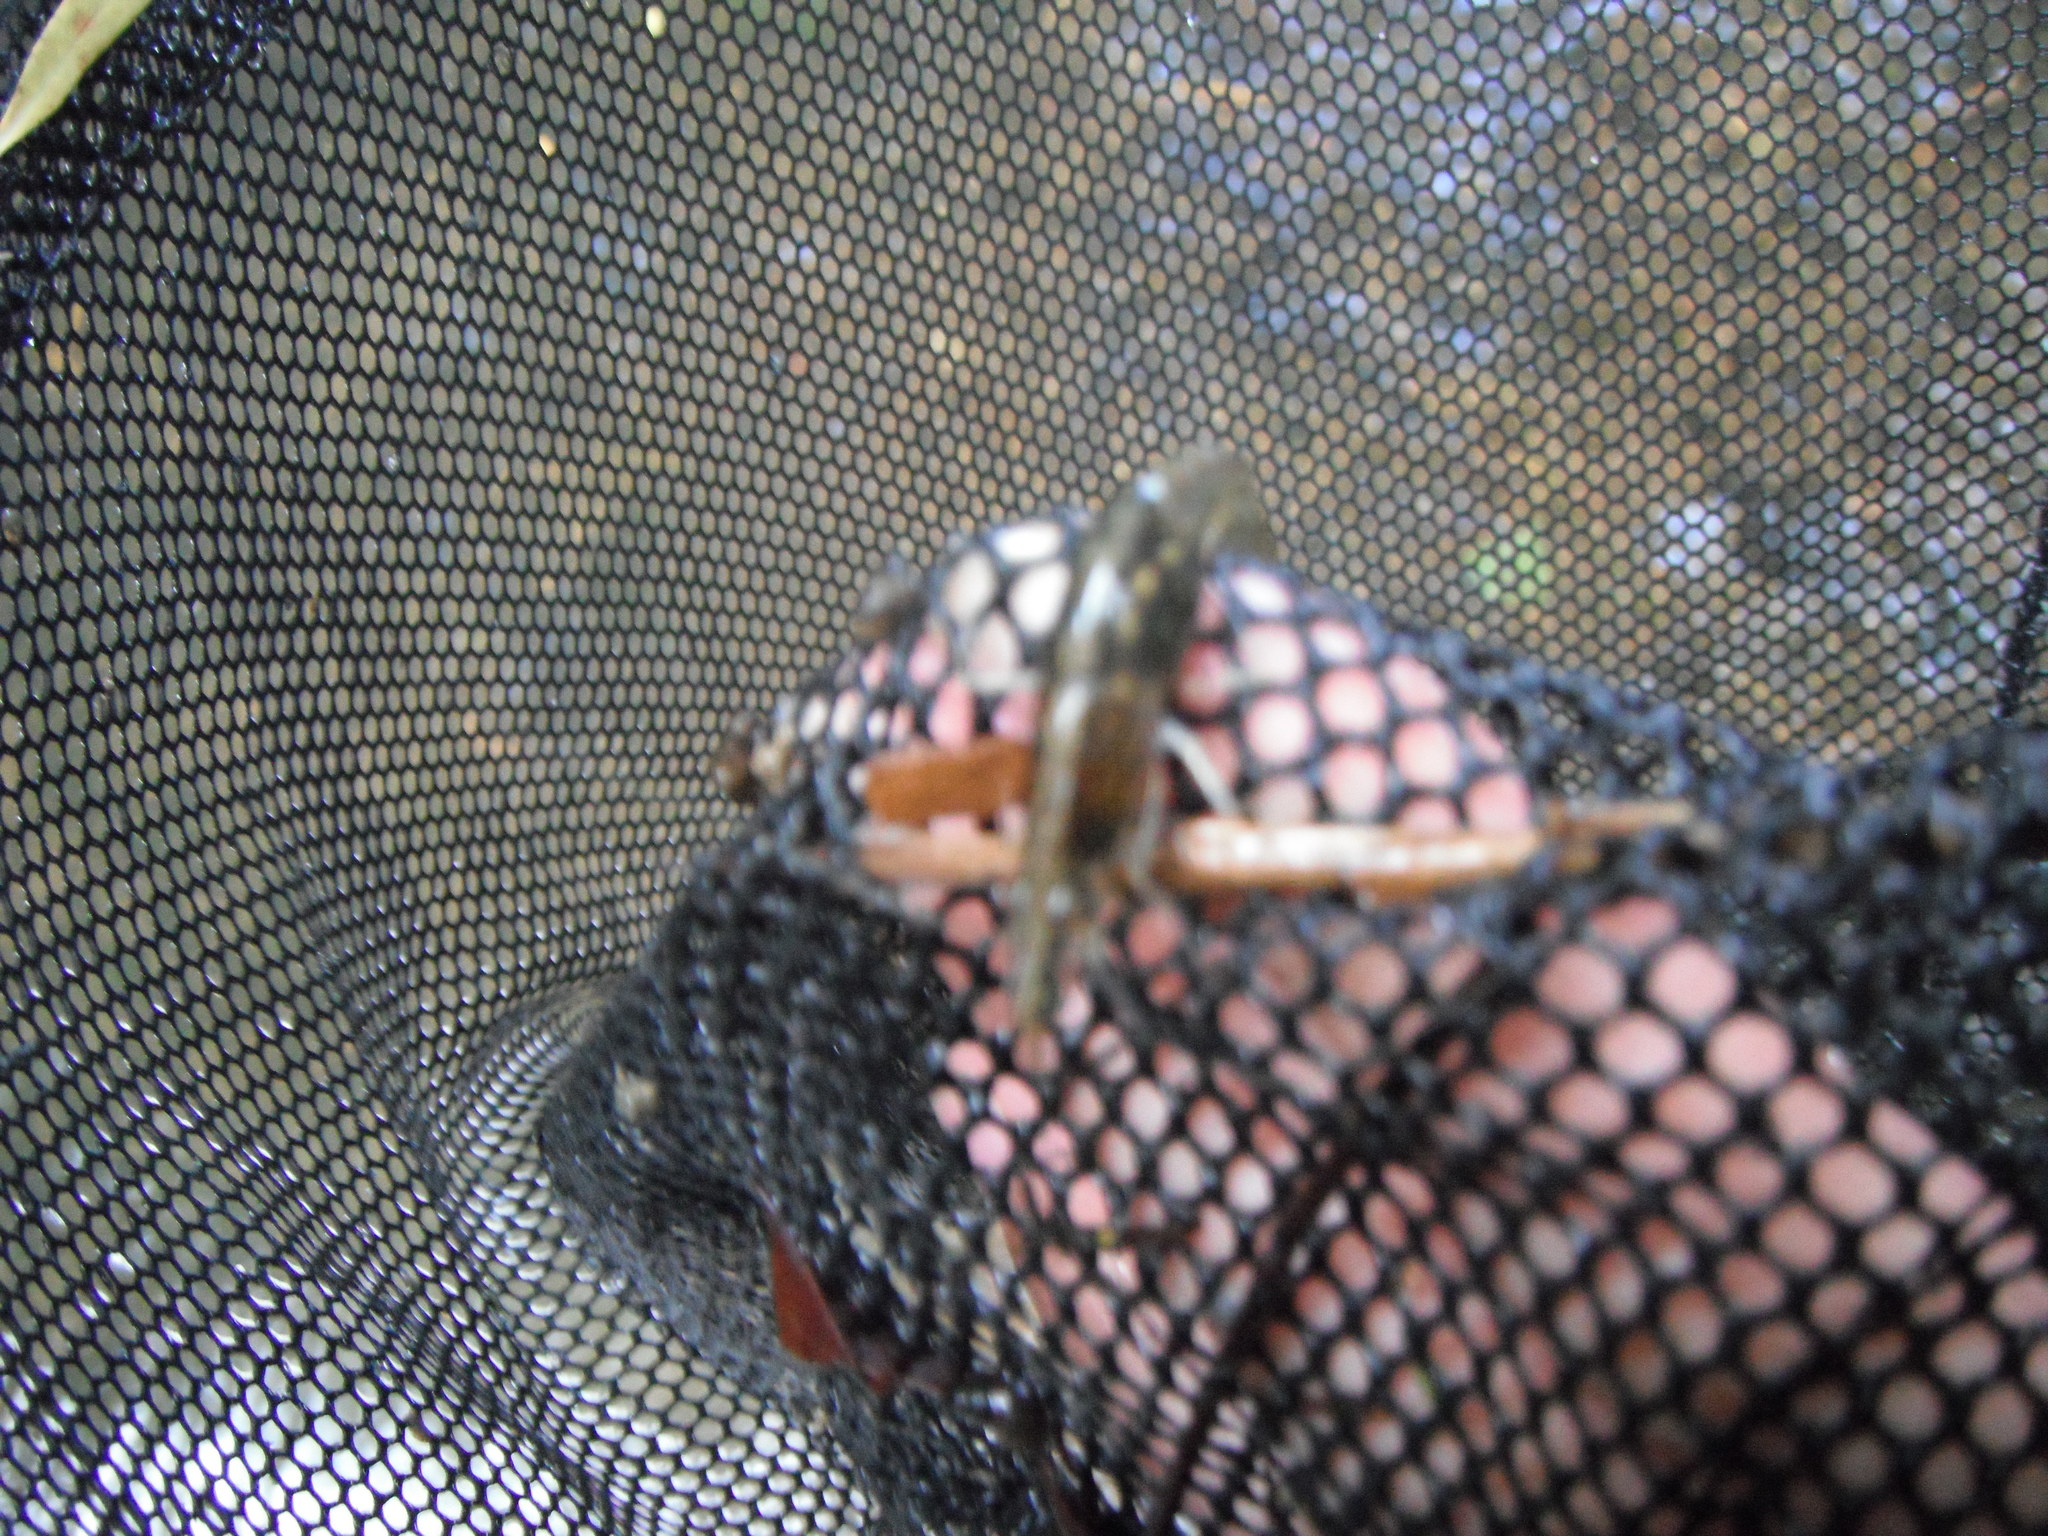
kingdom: Animalia
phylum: Arthropoda
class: Malacostraca
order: Decapoda
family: Atyidae
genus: Paratya
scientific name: Paratya curvirostris
